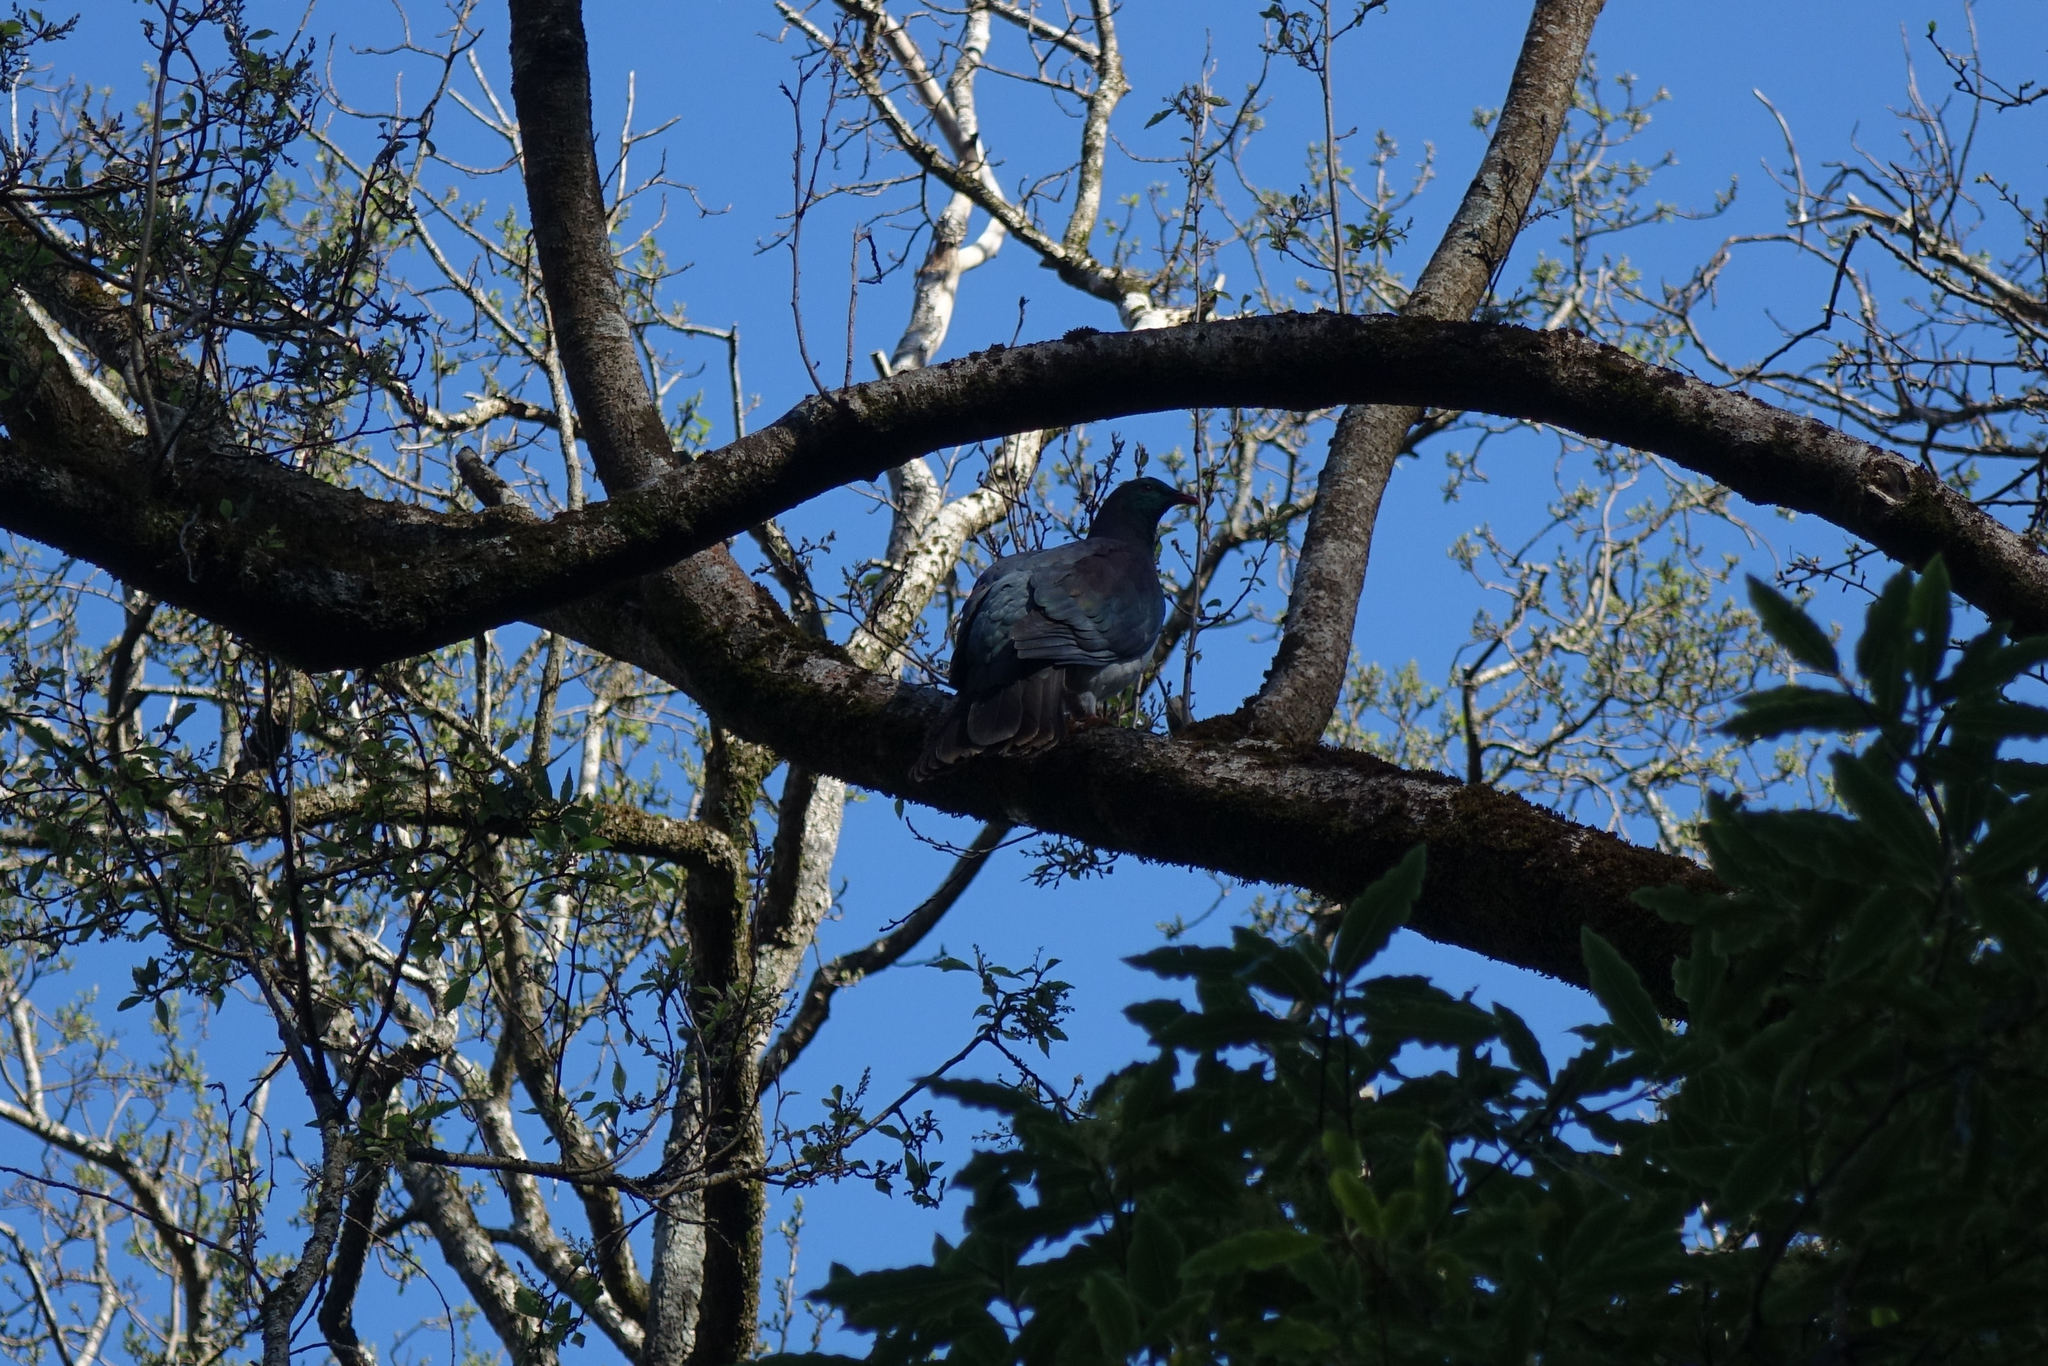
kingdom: Animalia
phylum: Chordata
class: Aves
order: Columbiformes
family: Columbidae
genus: Hemiphaga
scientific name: Hemiphaga novaeseelandiae
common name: New zealand pigeon
